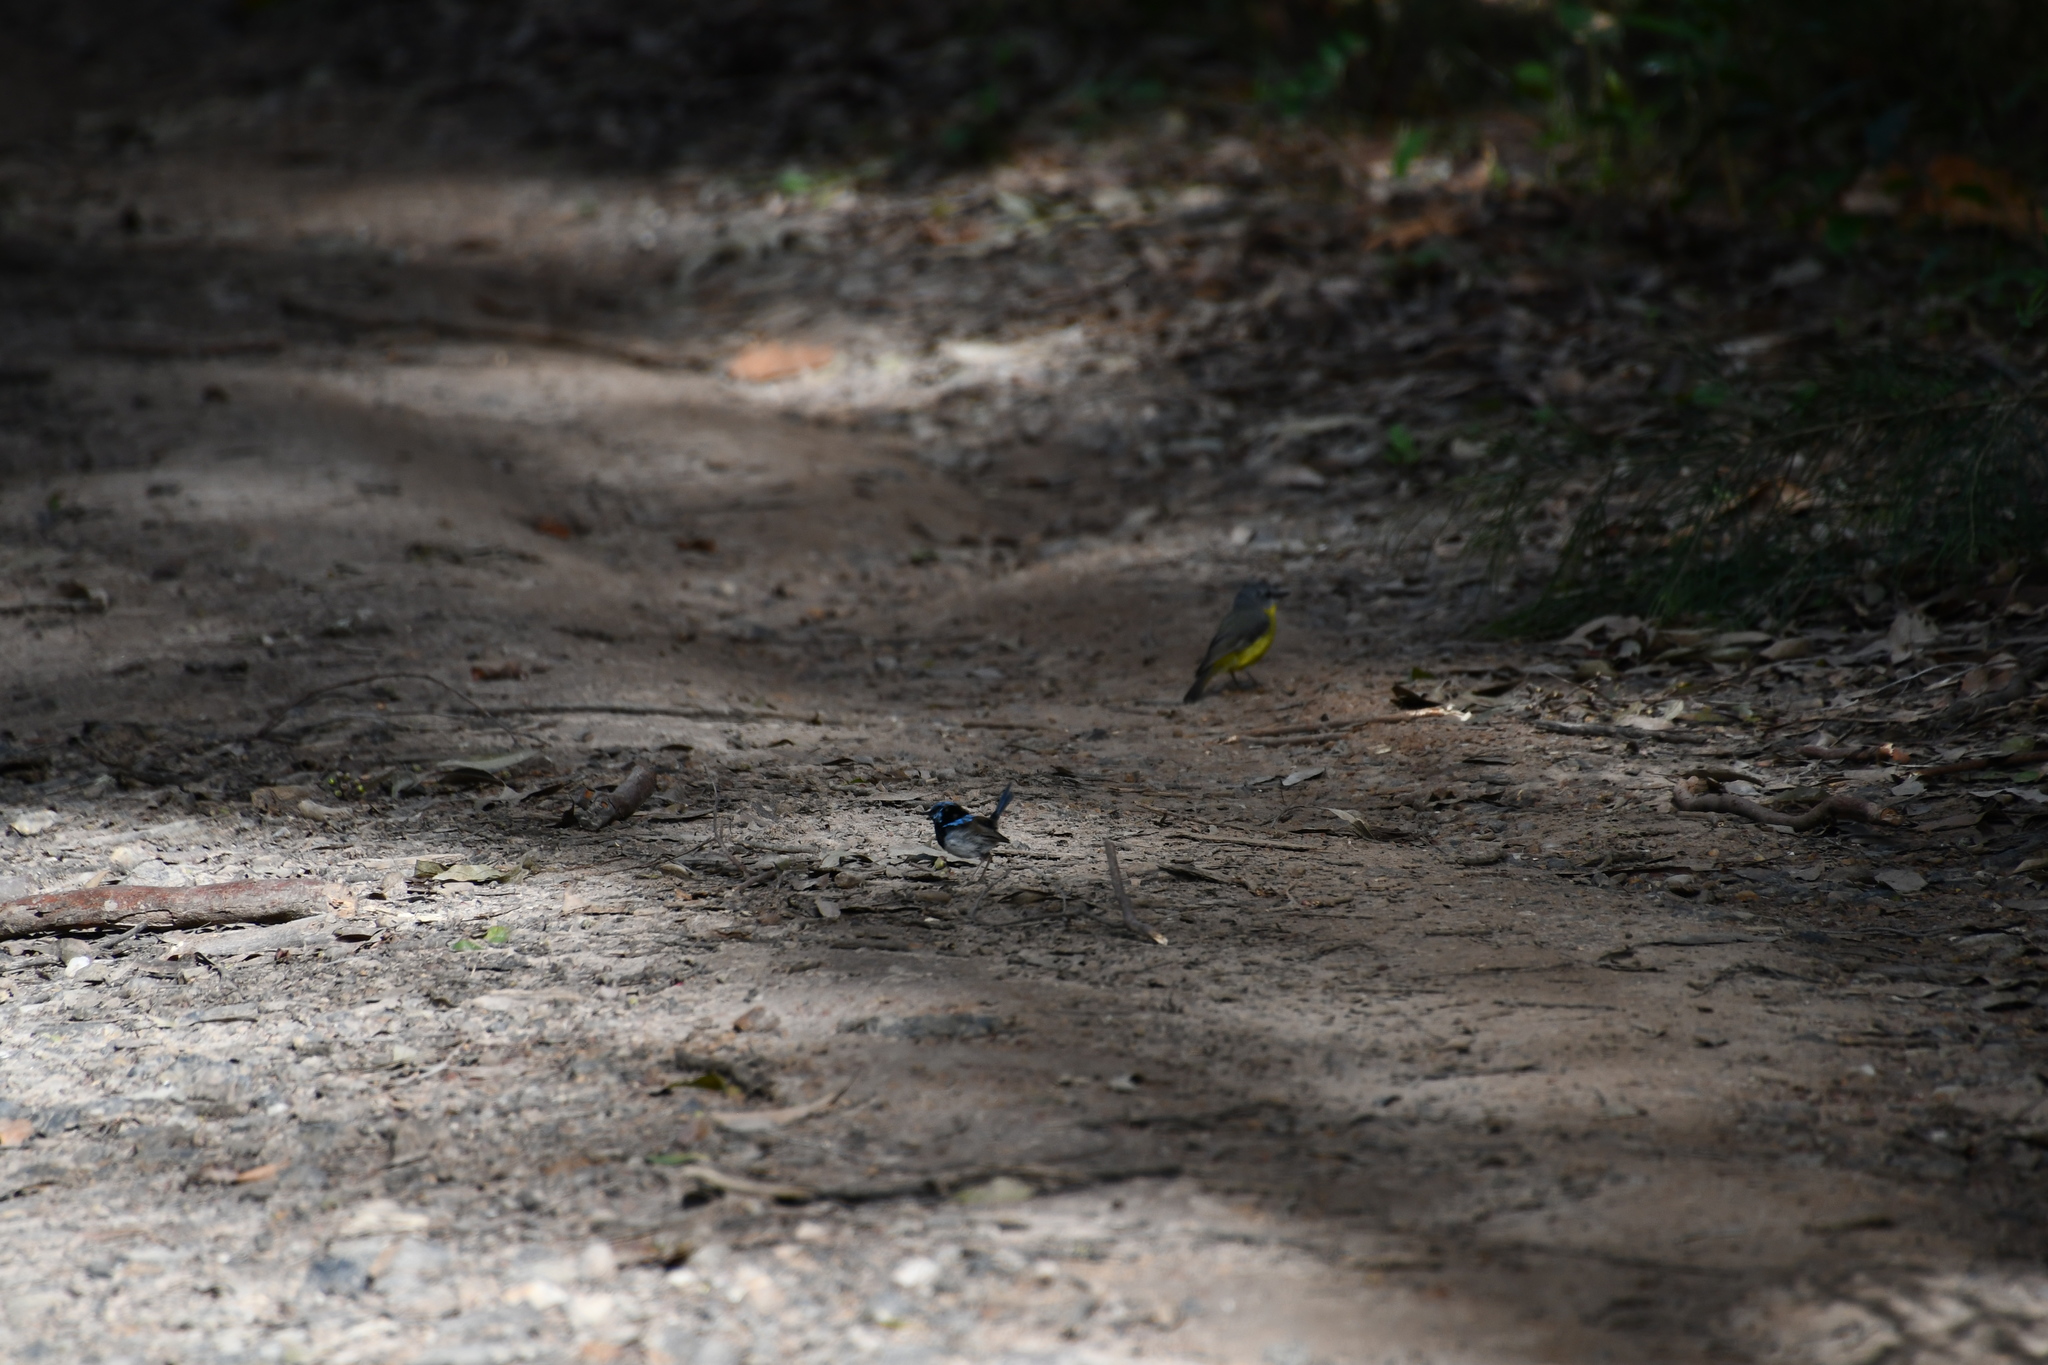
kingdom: Animalia
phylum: Chordata
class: Aves
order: Passeriformes
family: Maluridae
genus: Malurus
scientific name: Malurus cyaneus
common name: Superb fairywren
